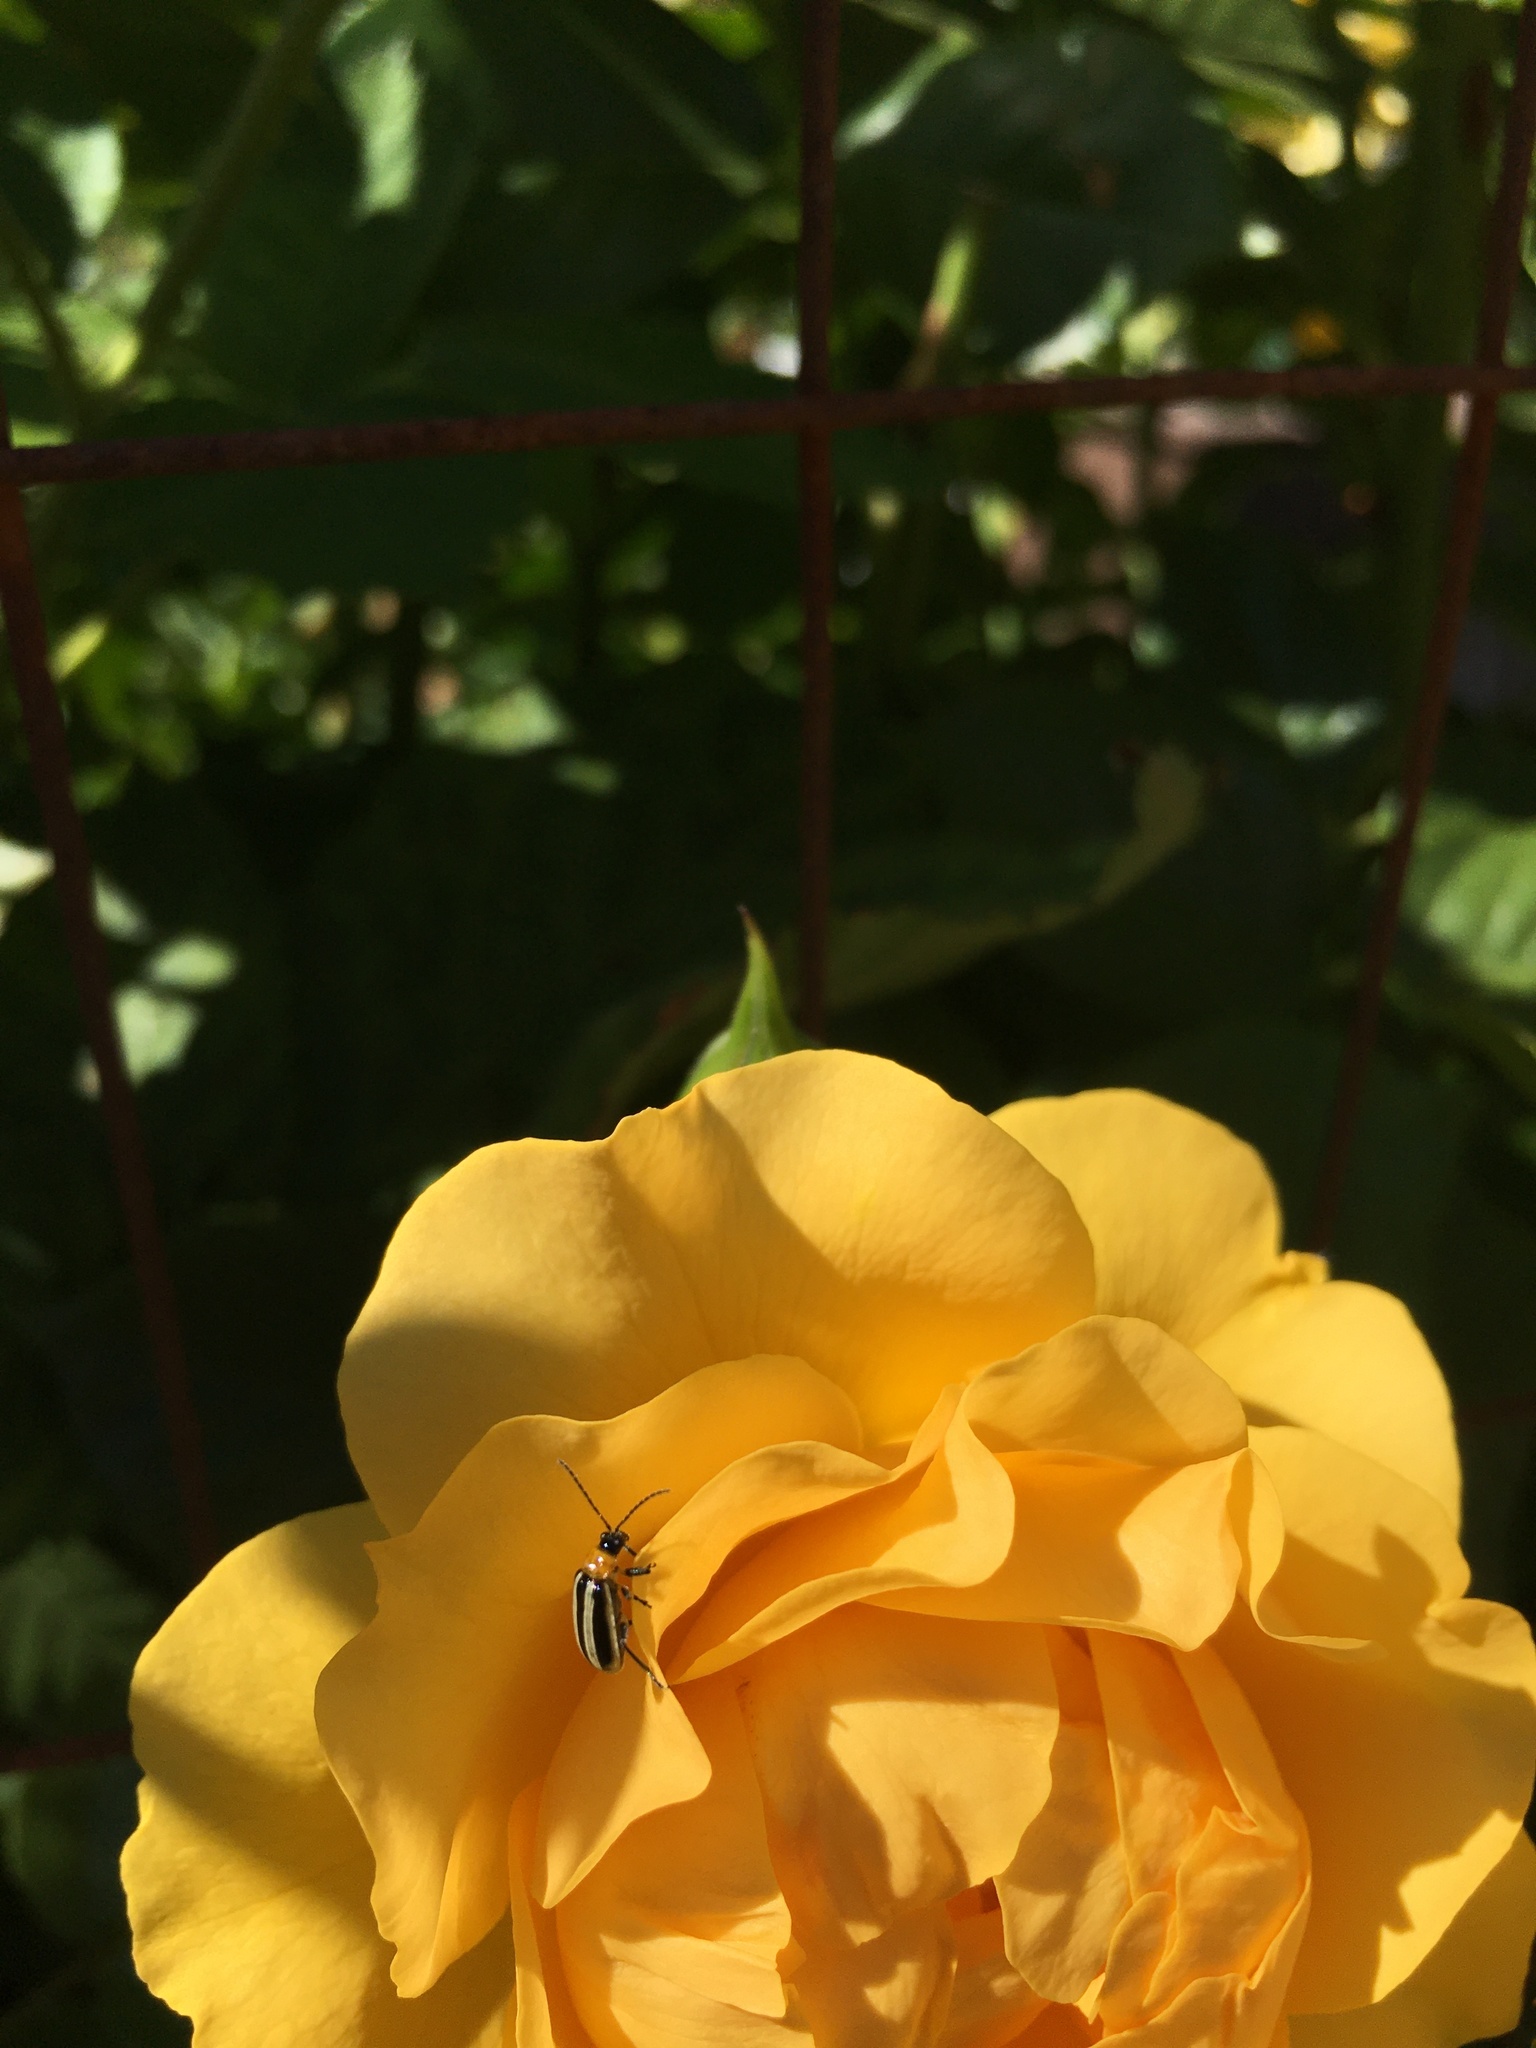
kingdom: Animalia
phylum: Arthropoda
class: Insecta
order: Coleoptera
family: Chrysomelidae
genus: Acalymma
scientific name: Acalymma trivittatum
